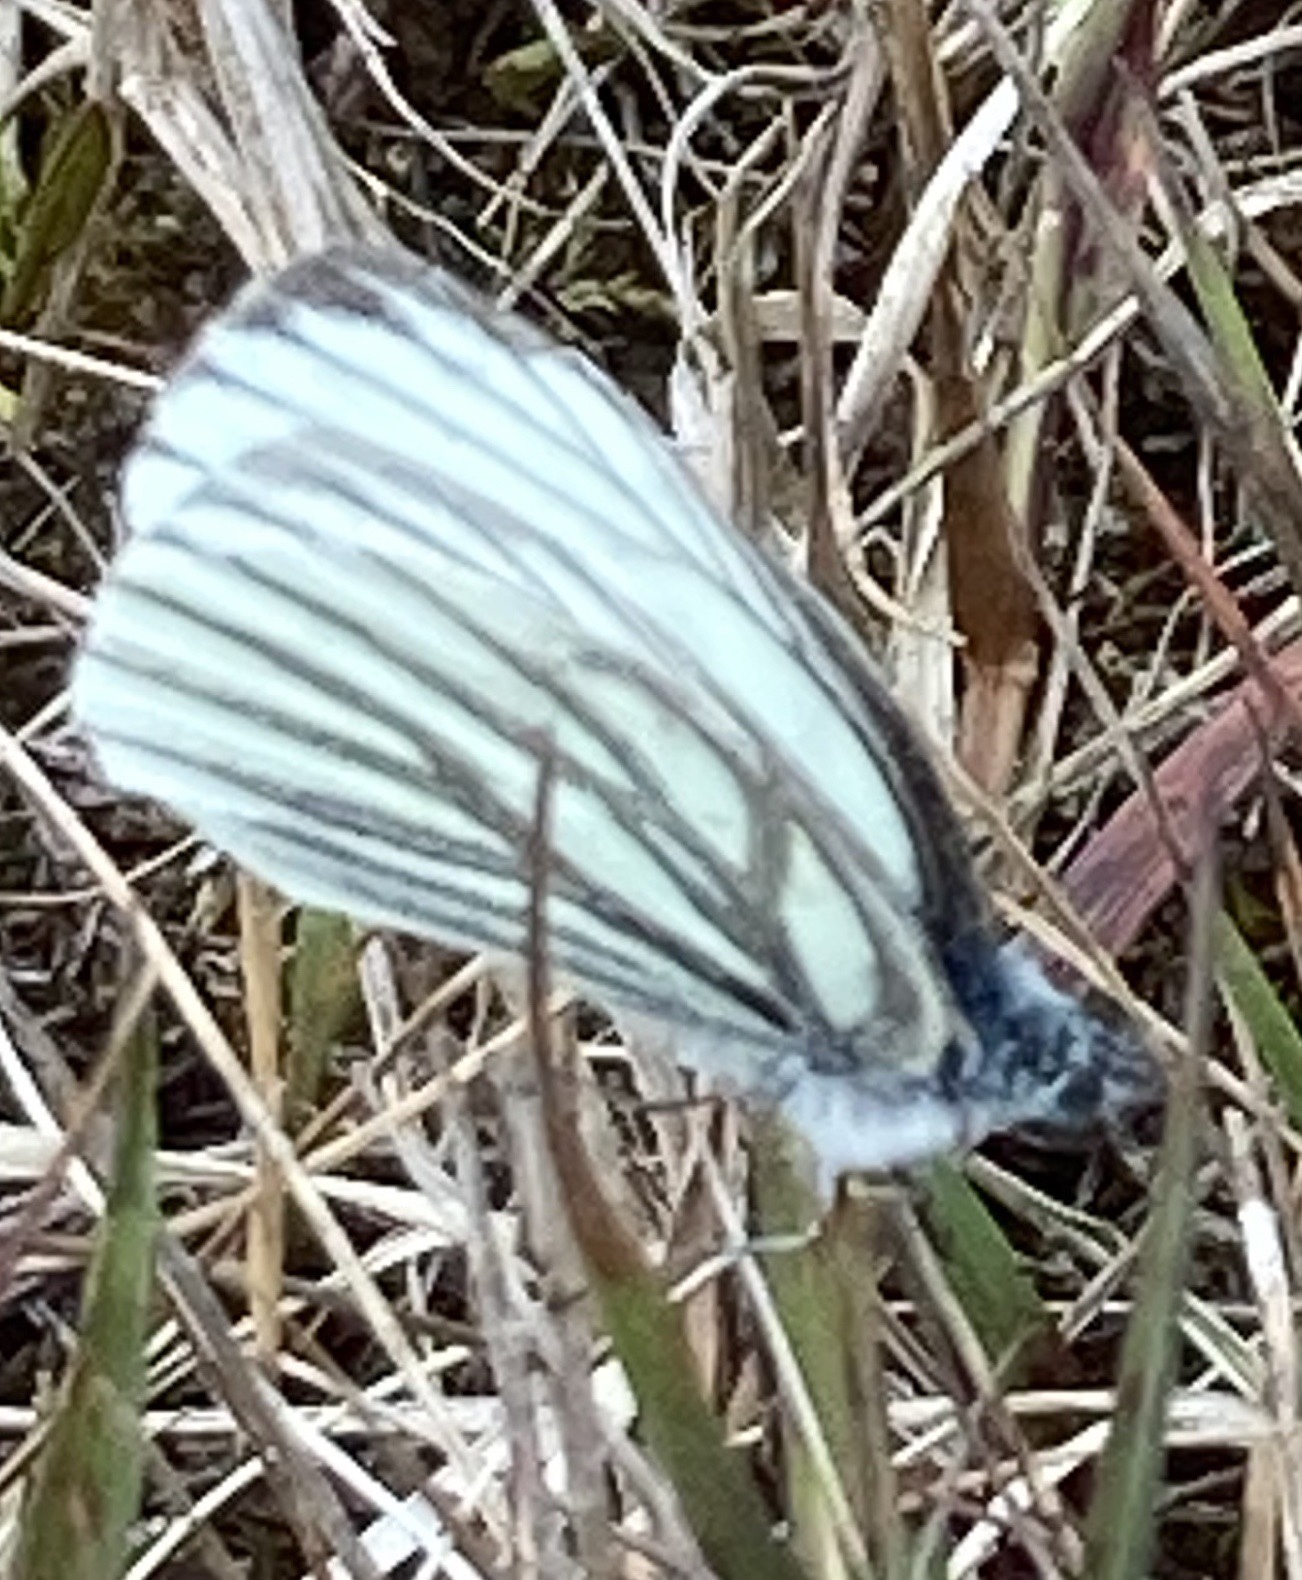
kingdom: Animalia
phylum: Arthropoda
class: Insecta
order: Lepidoptera
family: Pieridae
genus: Pieris
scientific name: Pieris napi
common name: Green-veined white
